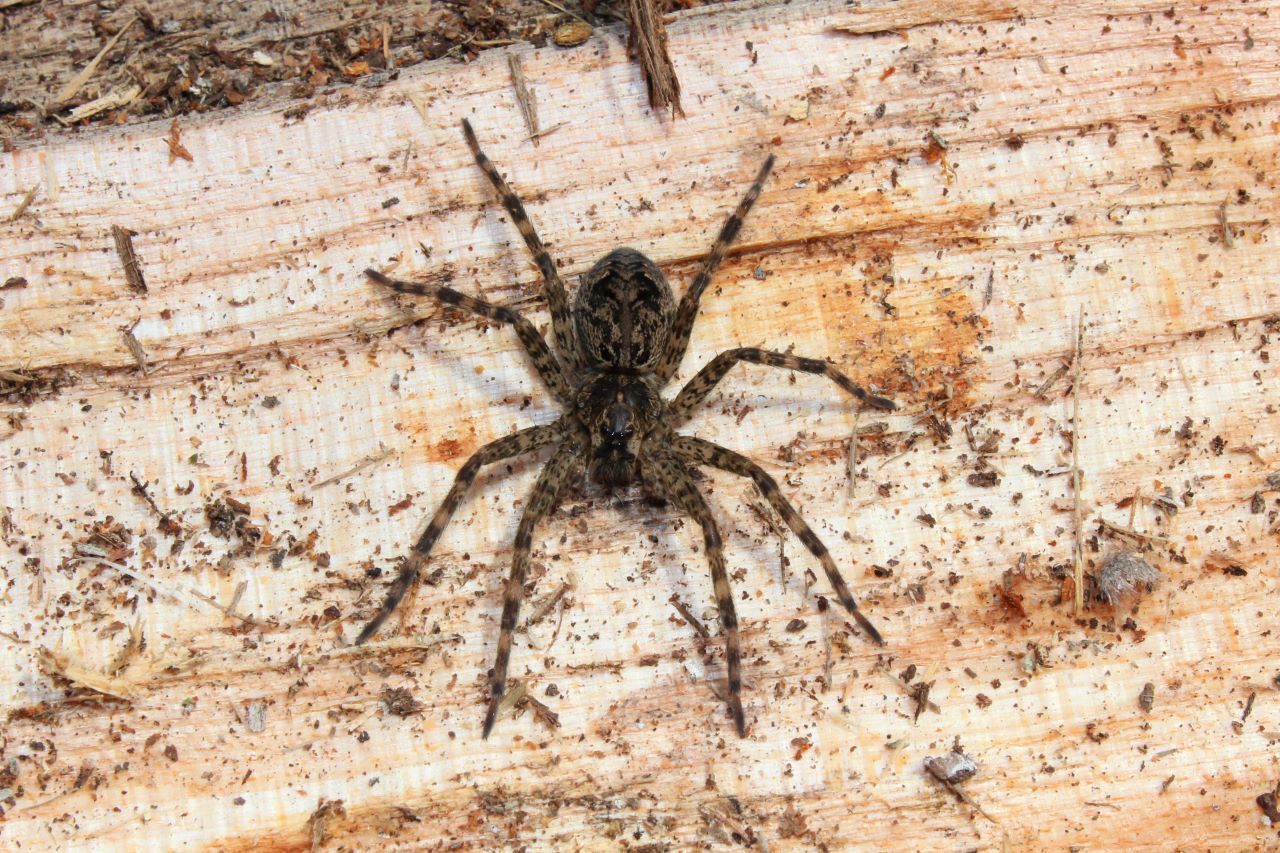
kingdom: Animalia
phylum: Arthropoda
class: Arachnida
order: Araneae
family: Pisauridae
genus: Dolomedes
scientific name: Dolomedes tenebrosus
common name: Dark fishing spider
